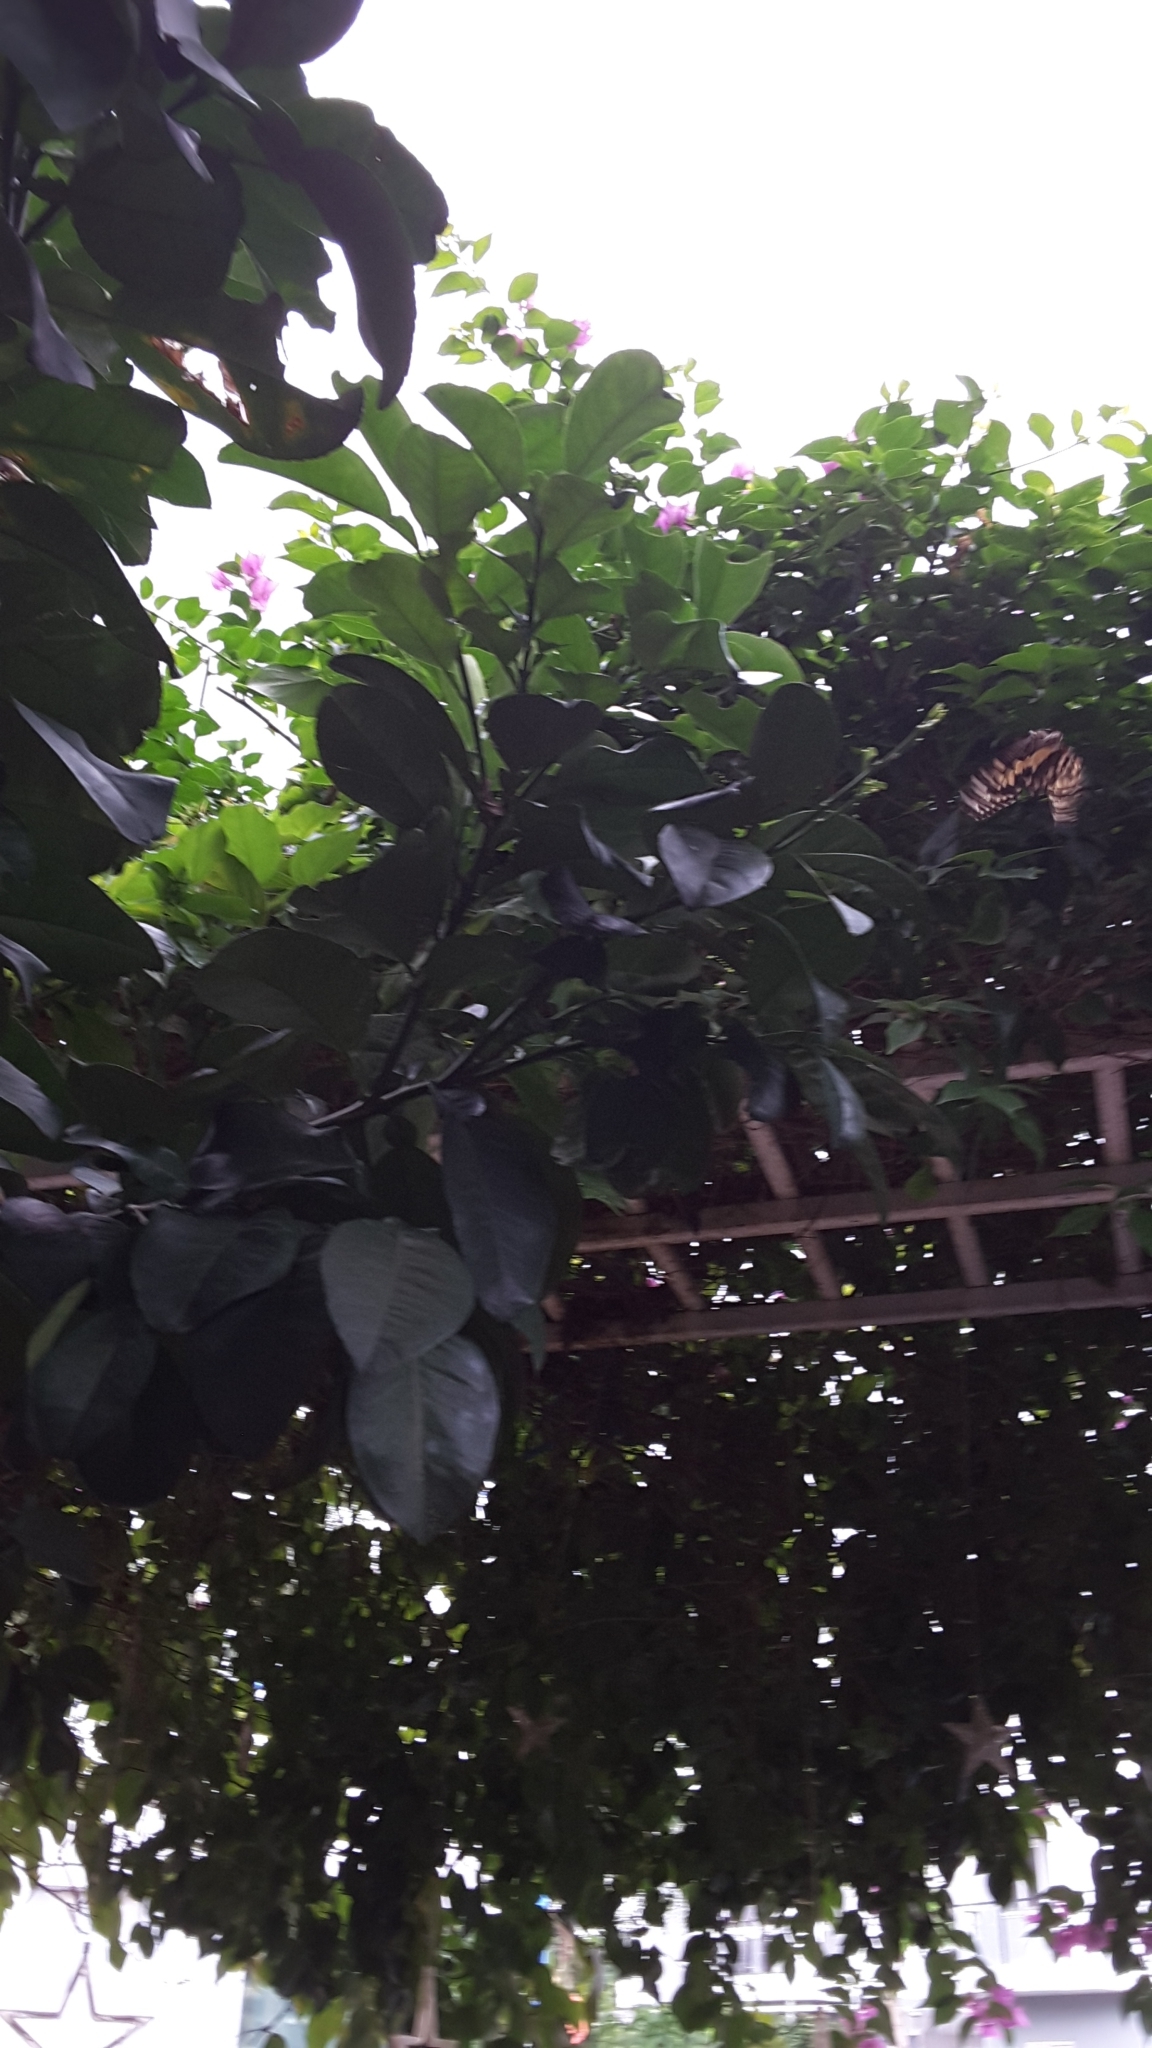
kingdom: Animalia
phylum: Arthropoda
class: Insecta
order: Lepidoptera
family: Papilionidae
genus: Papilio
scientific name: Papilio demoleus
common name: Lime butterfly
